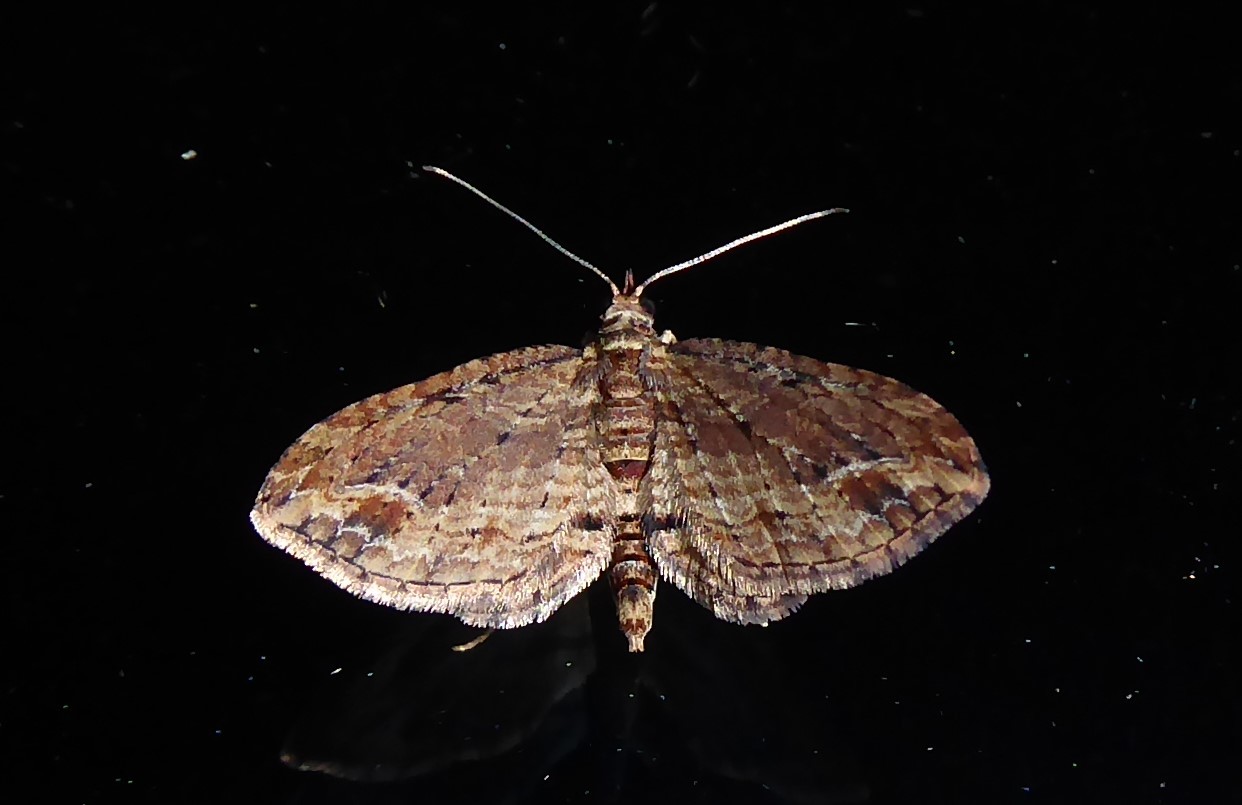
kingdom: Animalia
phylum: Arthropoda
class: Insecta
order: Lepidoptera
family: Geometridae
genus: Chloroclystis
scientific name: Chloroclystis filata
